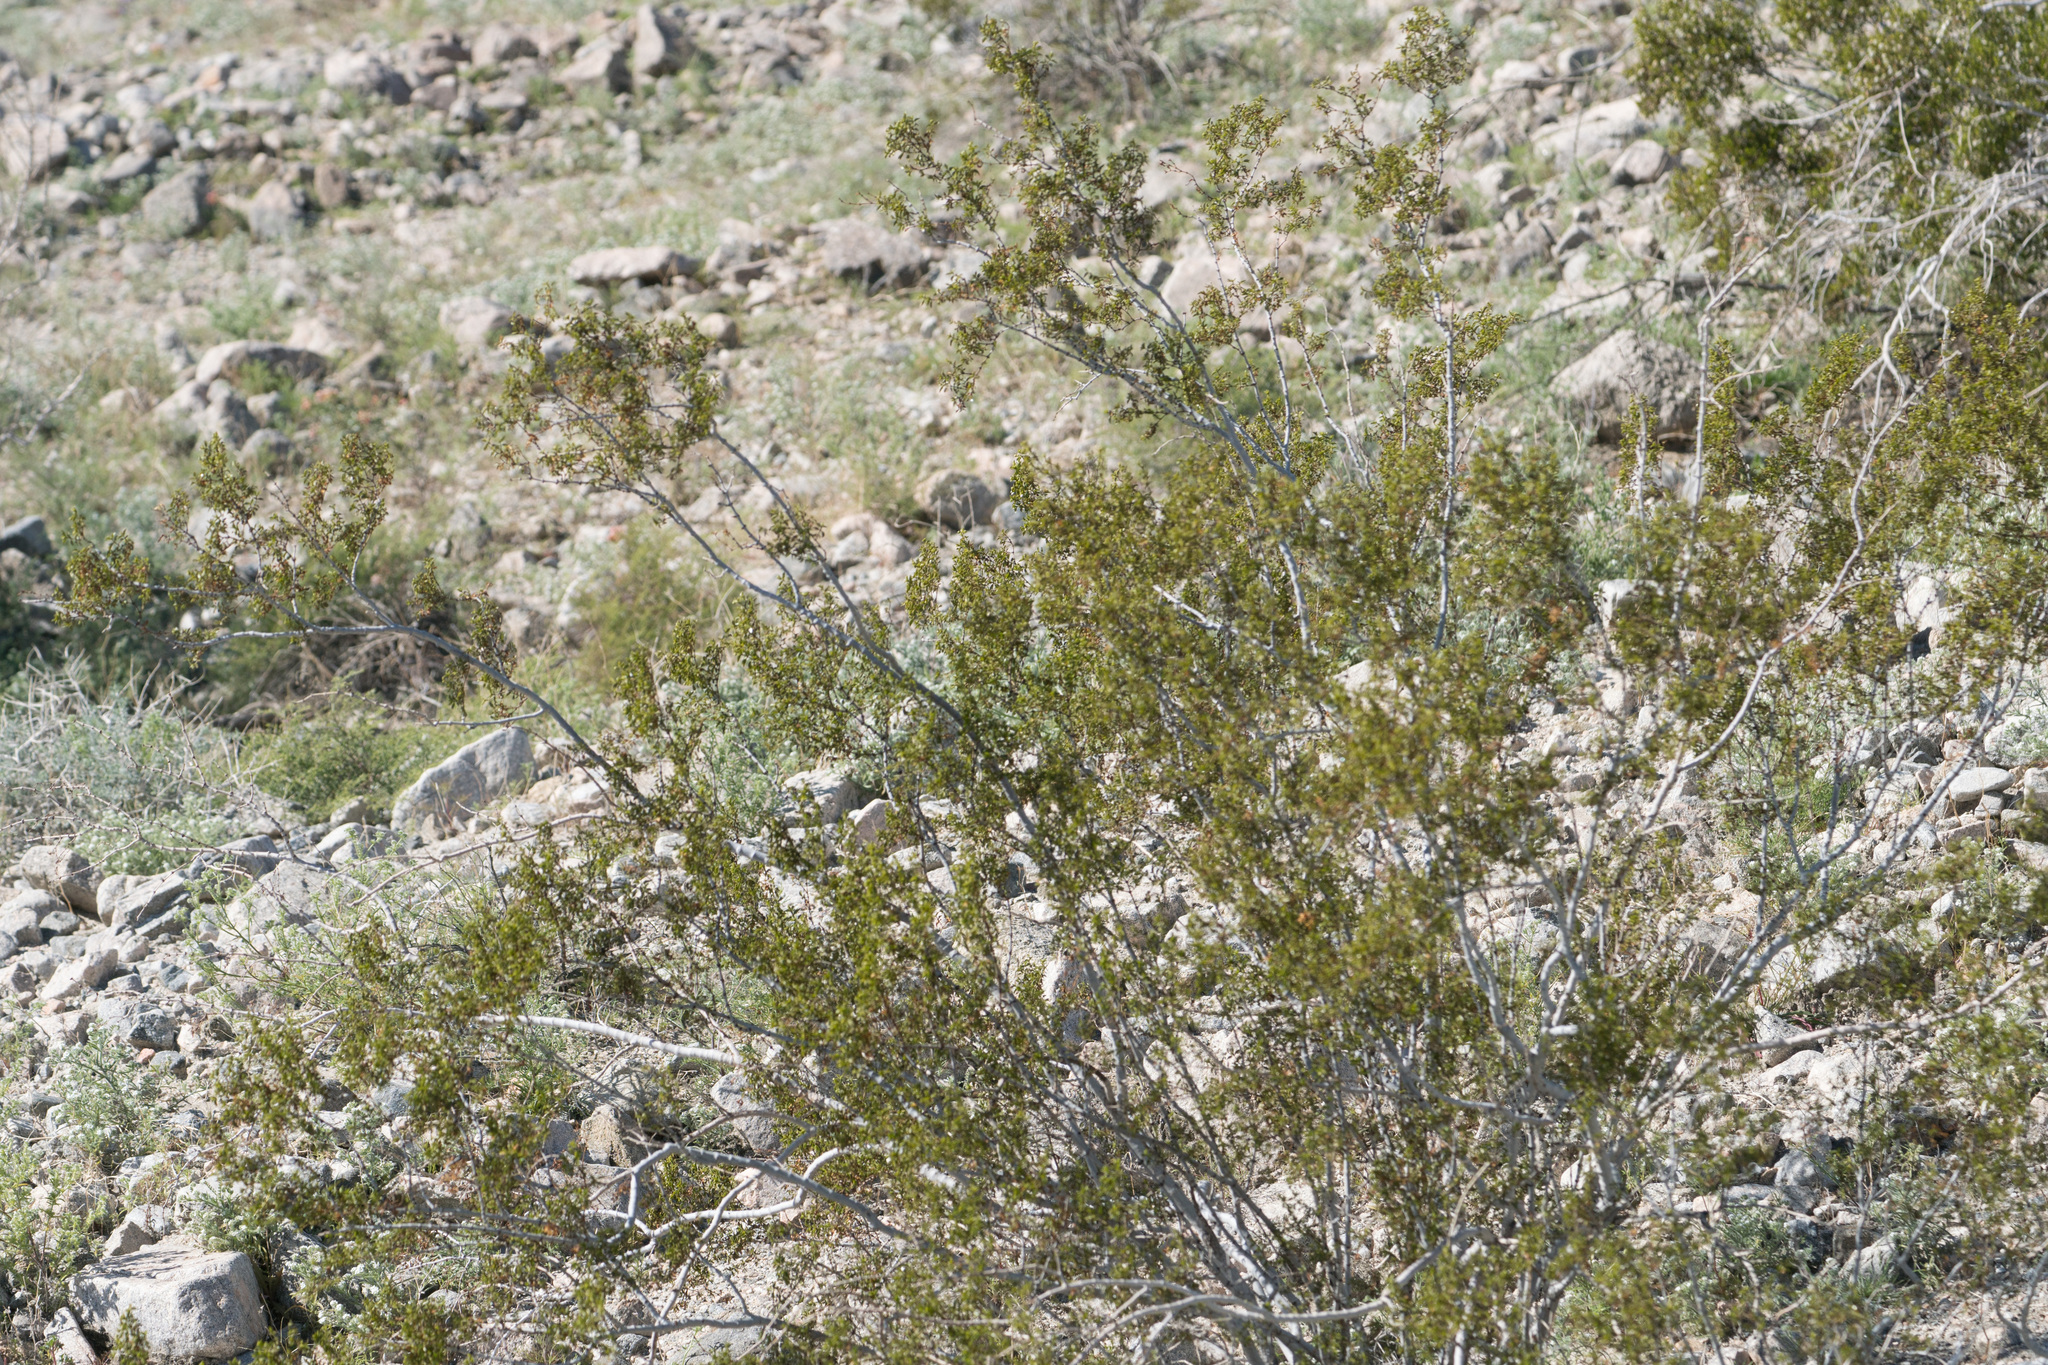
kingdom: Plantae
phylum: Tracheophyta
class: Magnoliopsida
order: Zygophyllales
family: Zygophyllaceae
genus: Larrea
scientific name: Larrea tridentata
